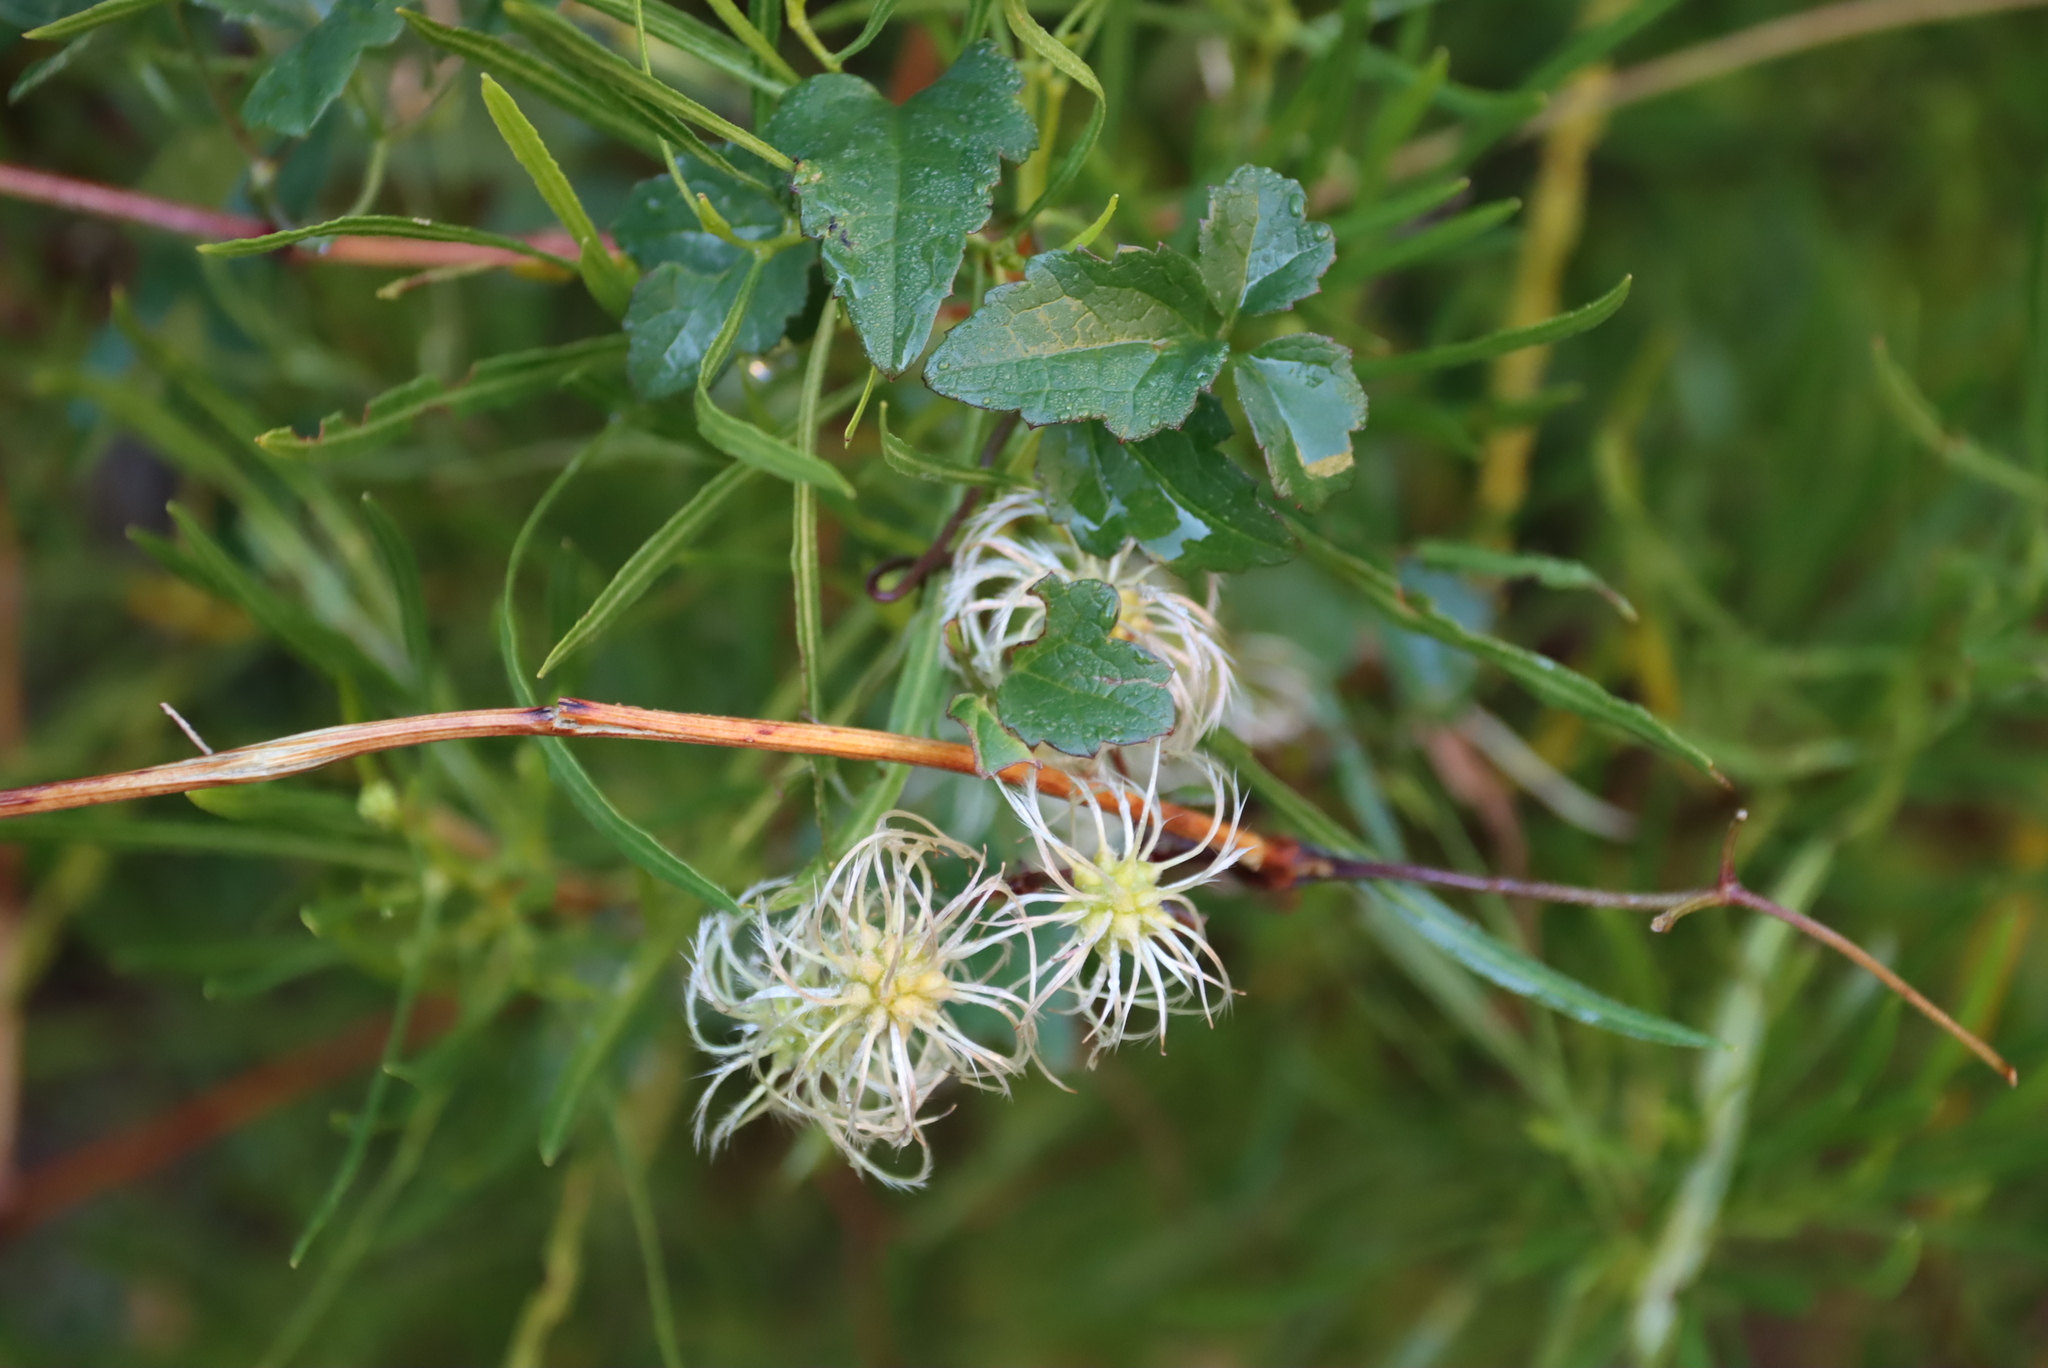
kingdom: Plantae
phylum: Tracheophyta
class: Magnoliopsida
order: Ranunculales
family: Ranunculaceae
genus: Clematis
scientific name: Clematis brachiata
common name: Traveler's-joy
